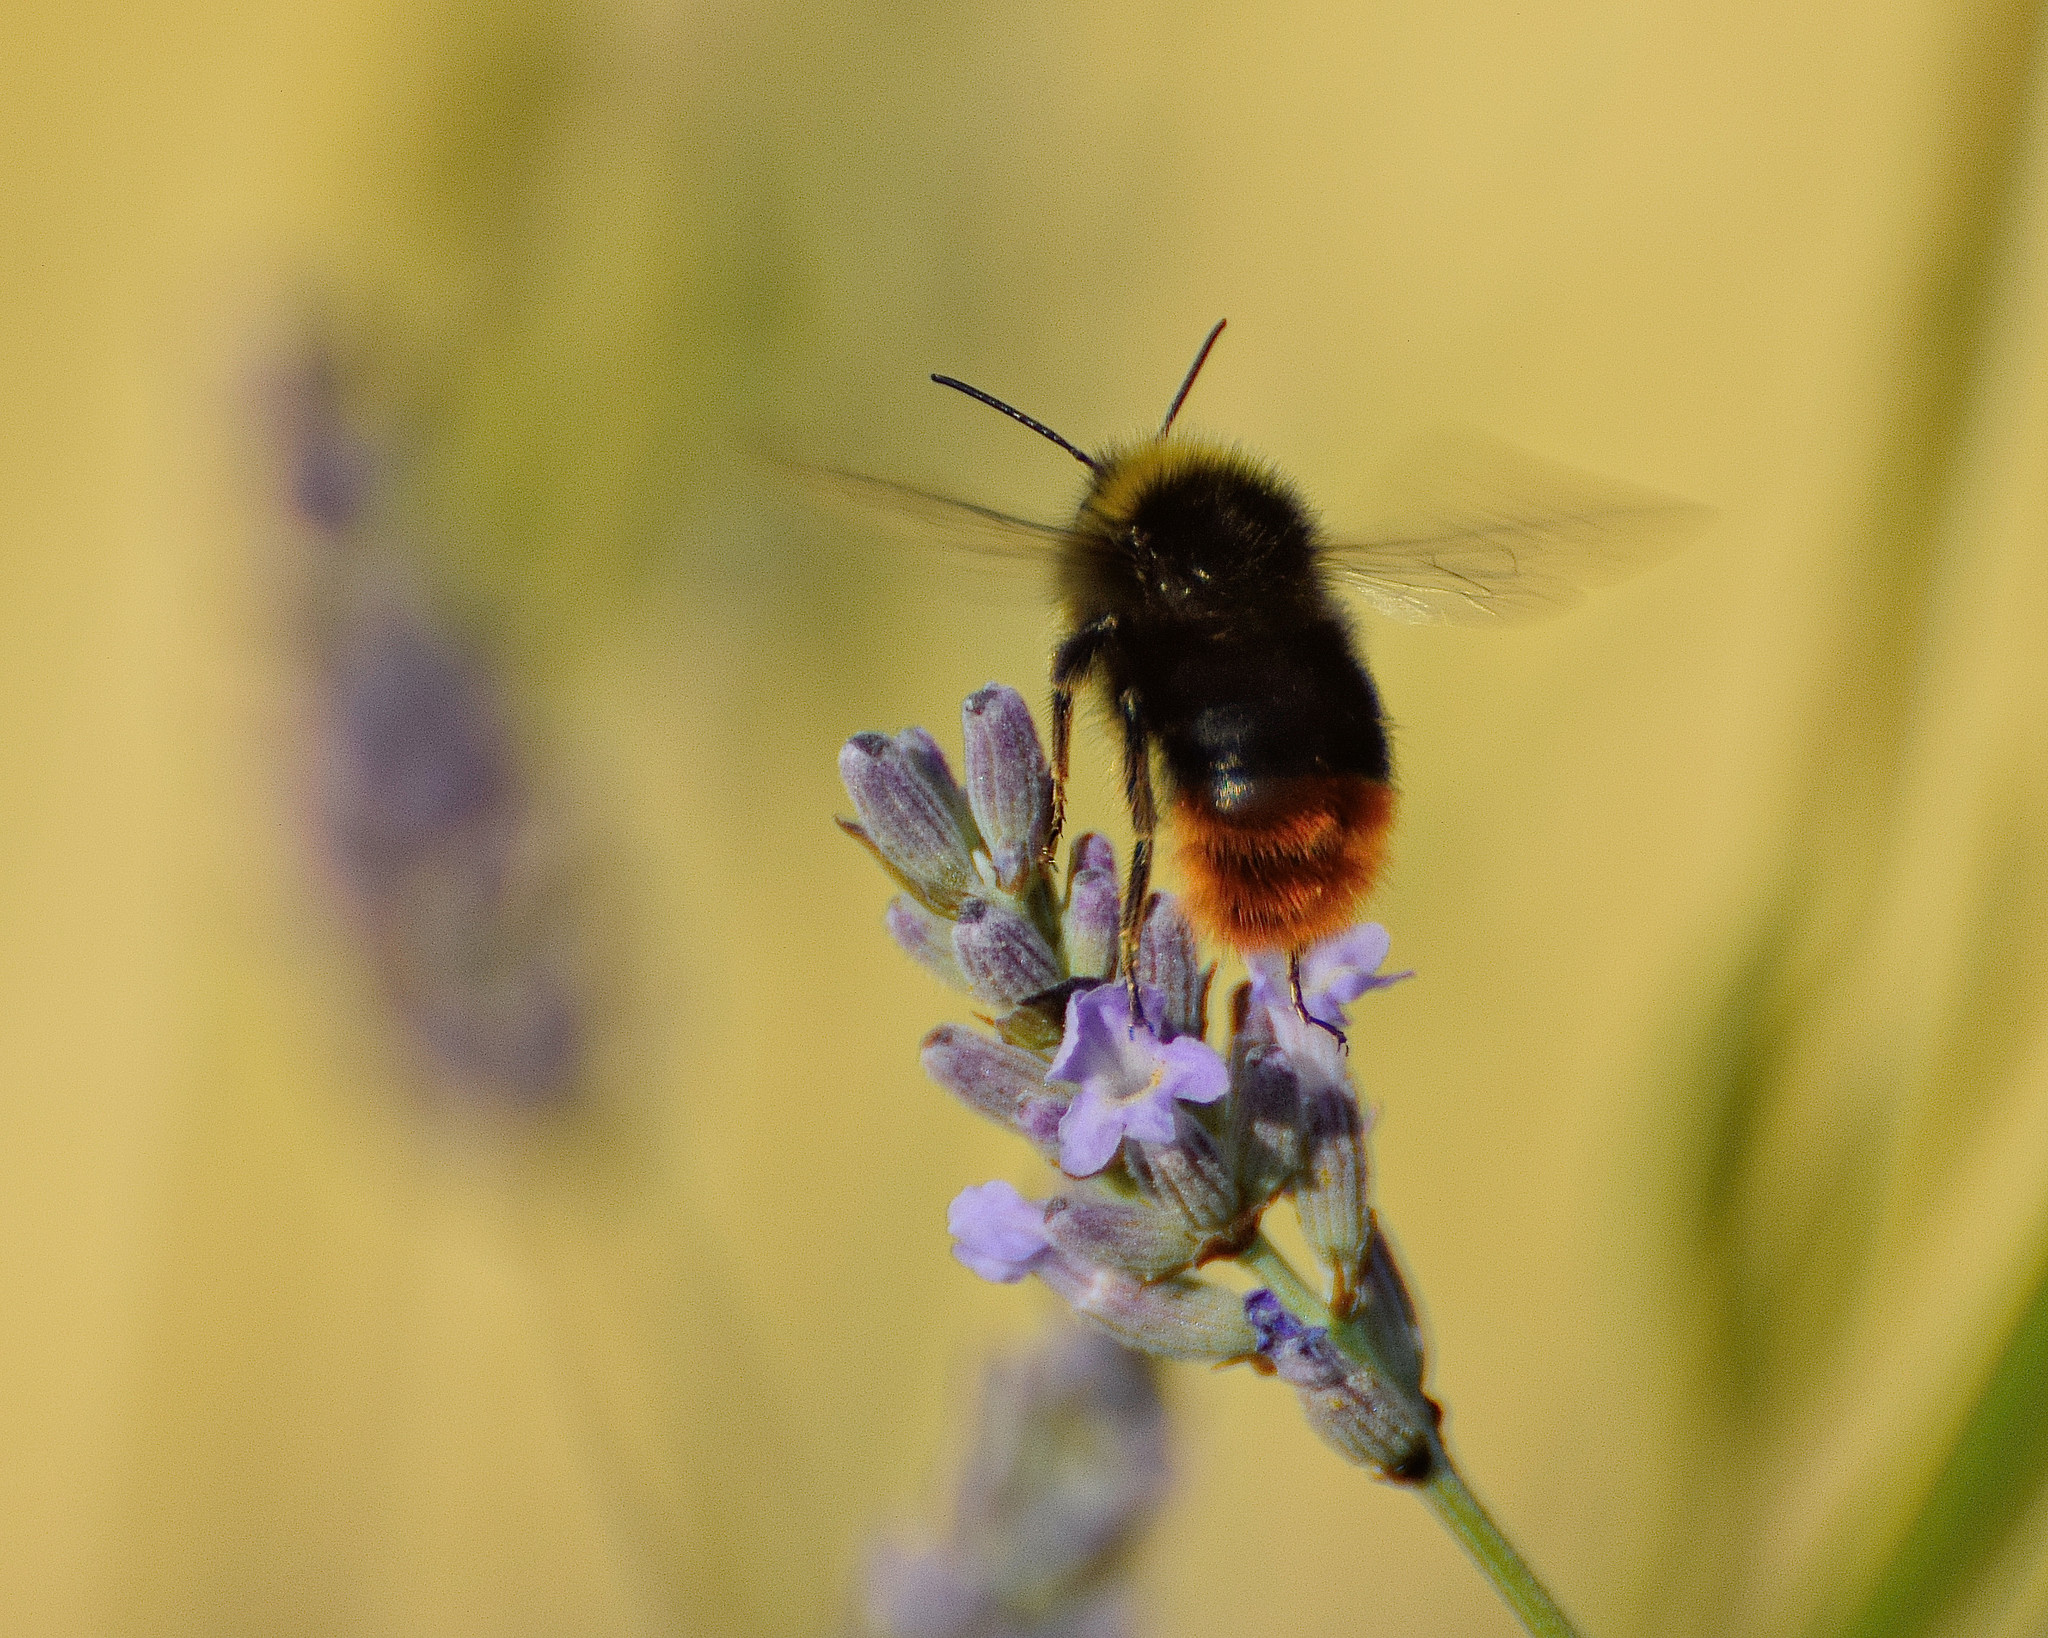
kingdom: Animalia
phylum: Arthropoda
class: Insecta
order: Hymenoptera
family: Apidae
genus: Bombus
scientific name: Bombus lapidarius
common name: Large red-tailed humble-bee
